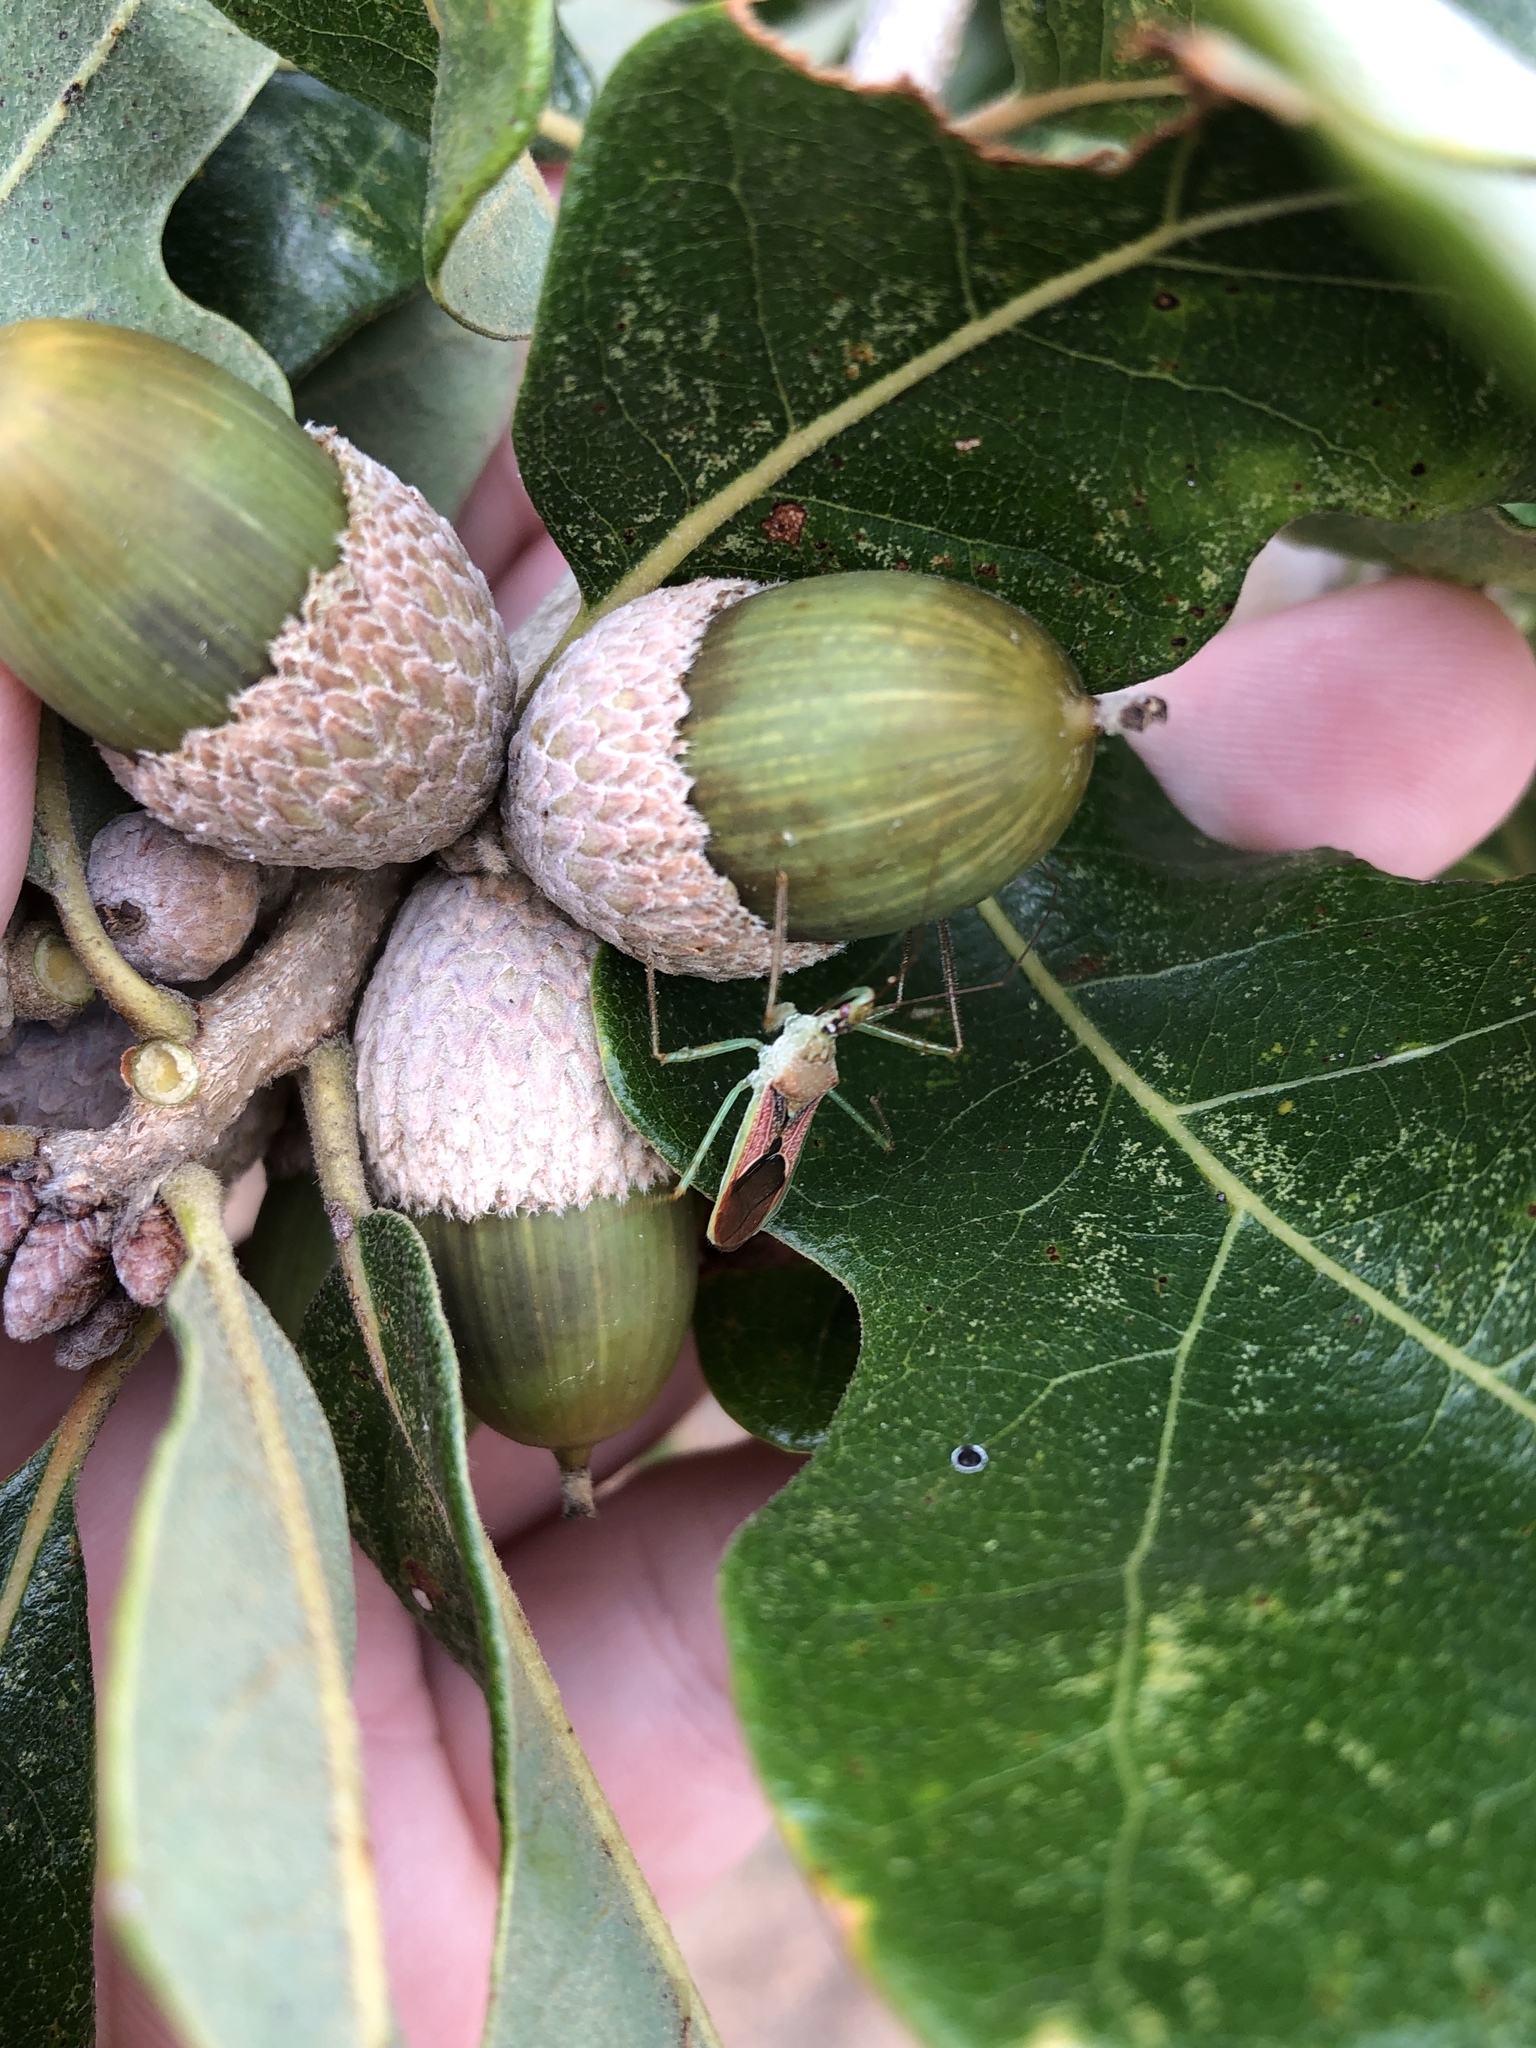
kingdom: Animalia
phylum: Arthropoda
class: Insecta
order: Hemiptera
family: Reduviidae
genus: Zelus
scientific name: Zelus renardii
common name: Assassin bug
